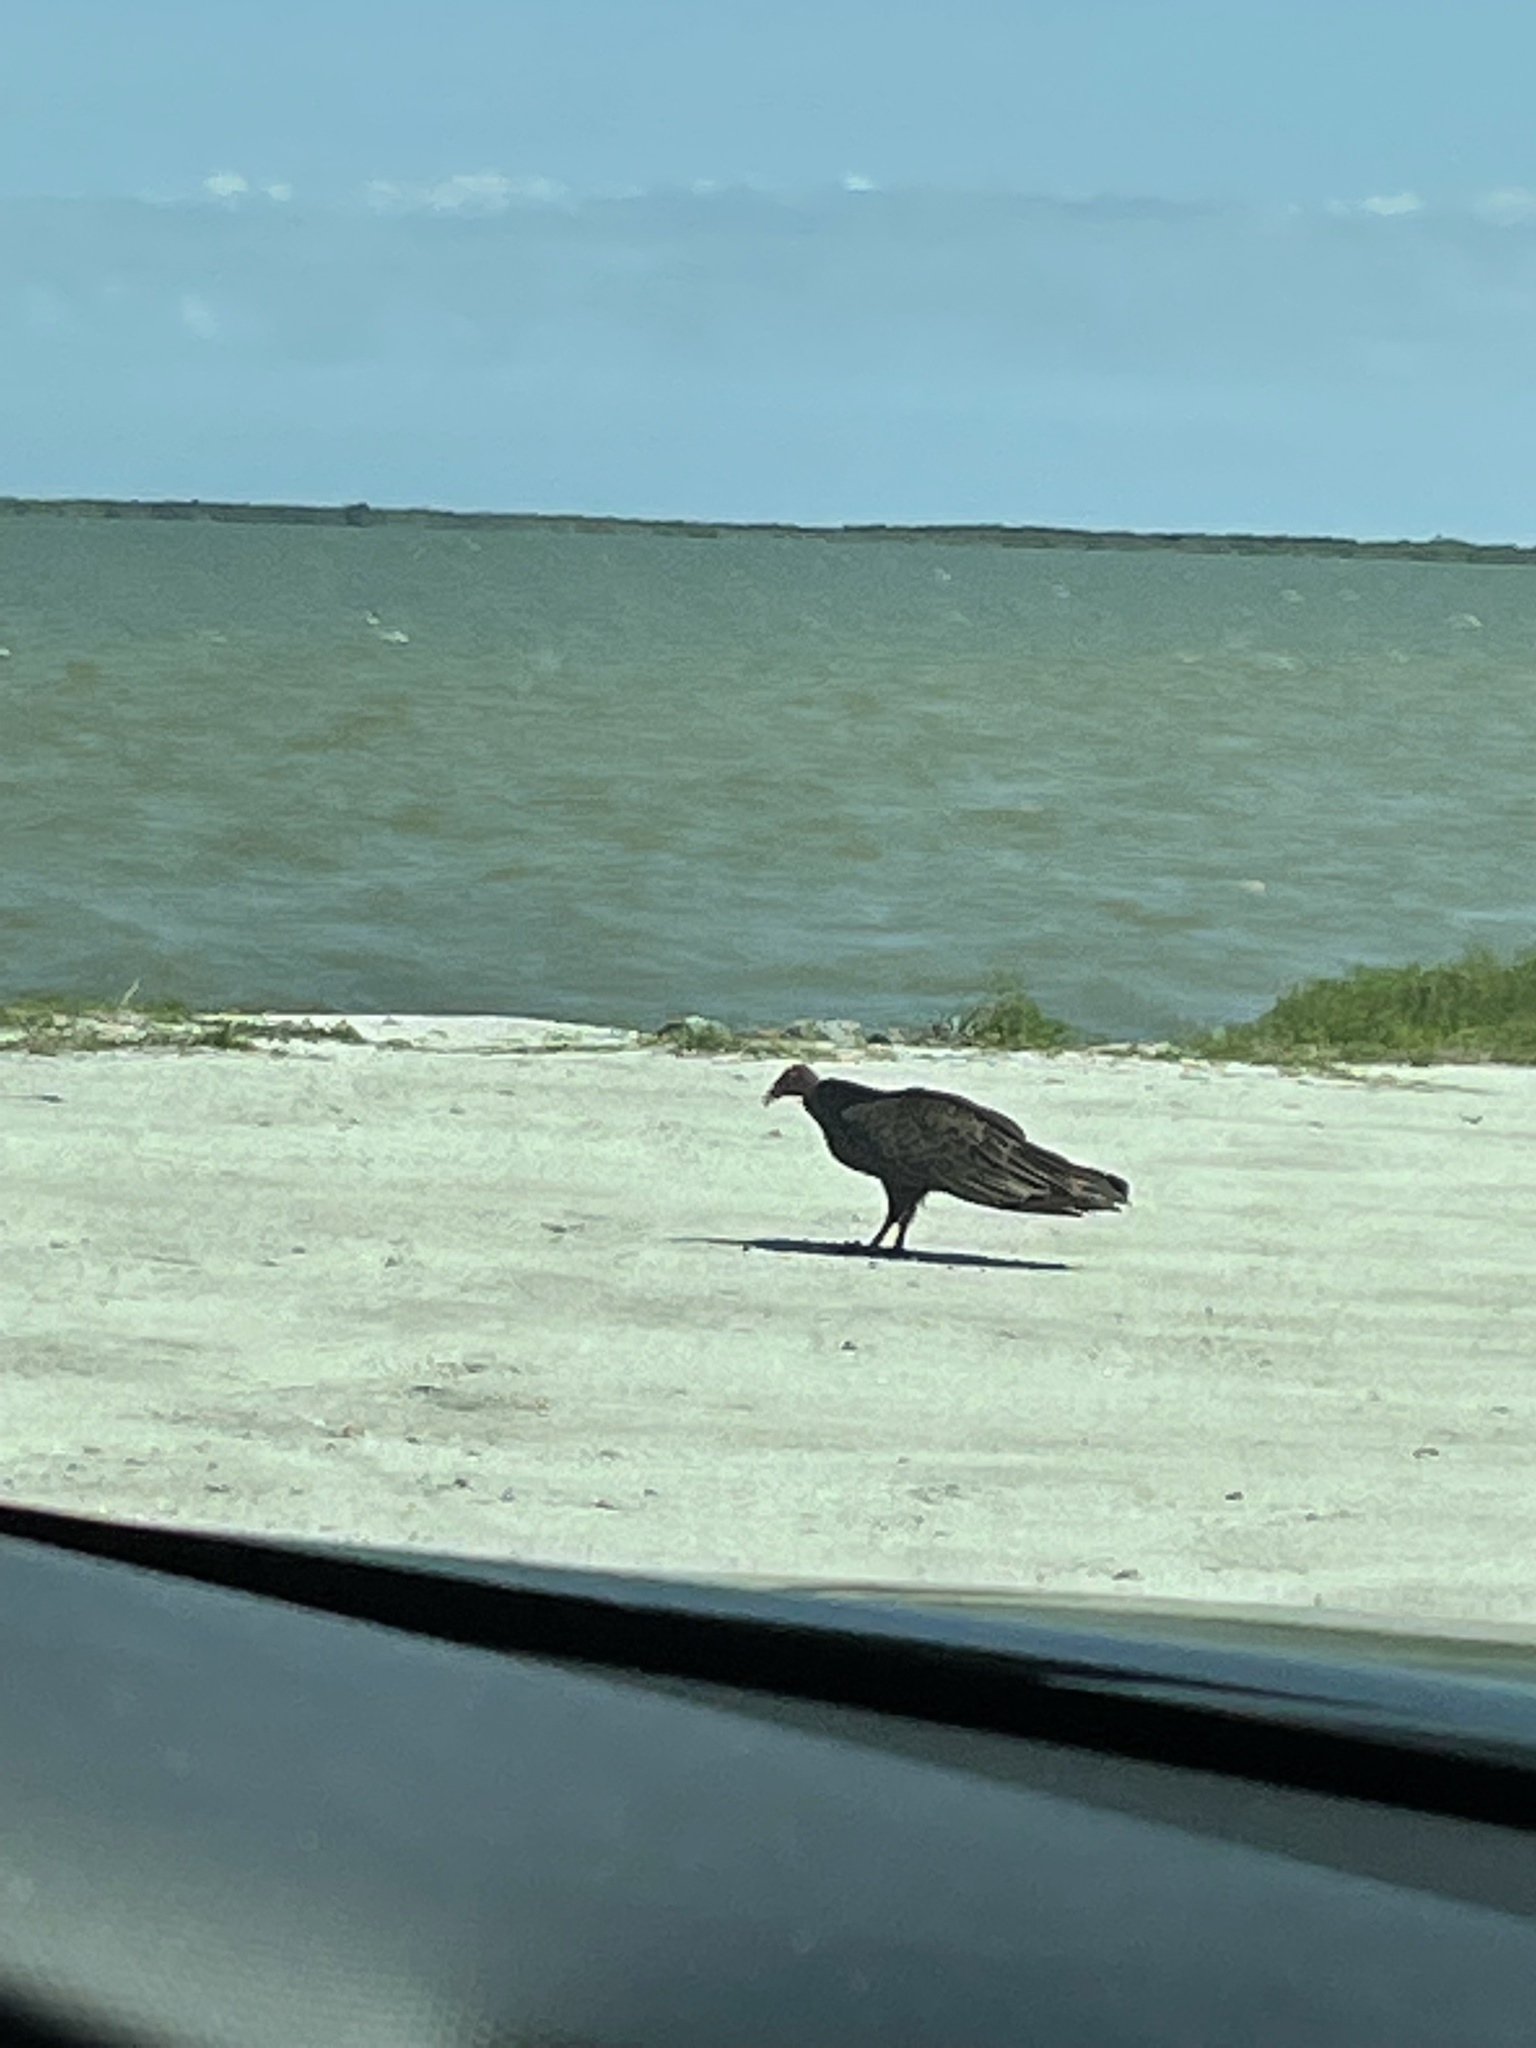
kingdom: Animalia
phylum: Chordata
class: Aves
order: Accipitriformes
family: Cathartidae
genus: Cathartes
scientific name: Cathartes aura
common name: Turkey vulture
